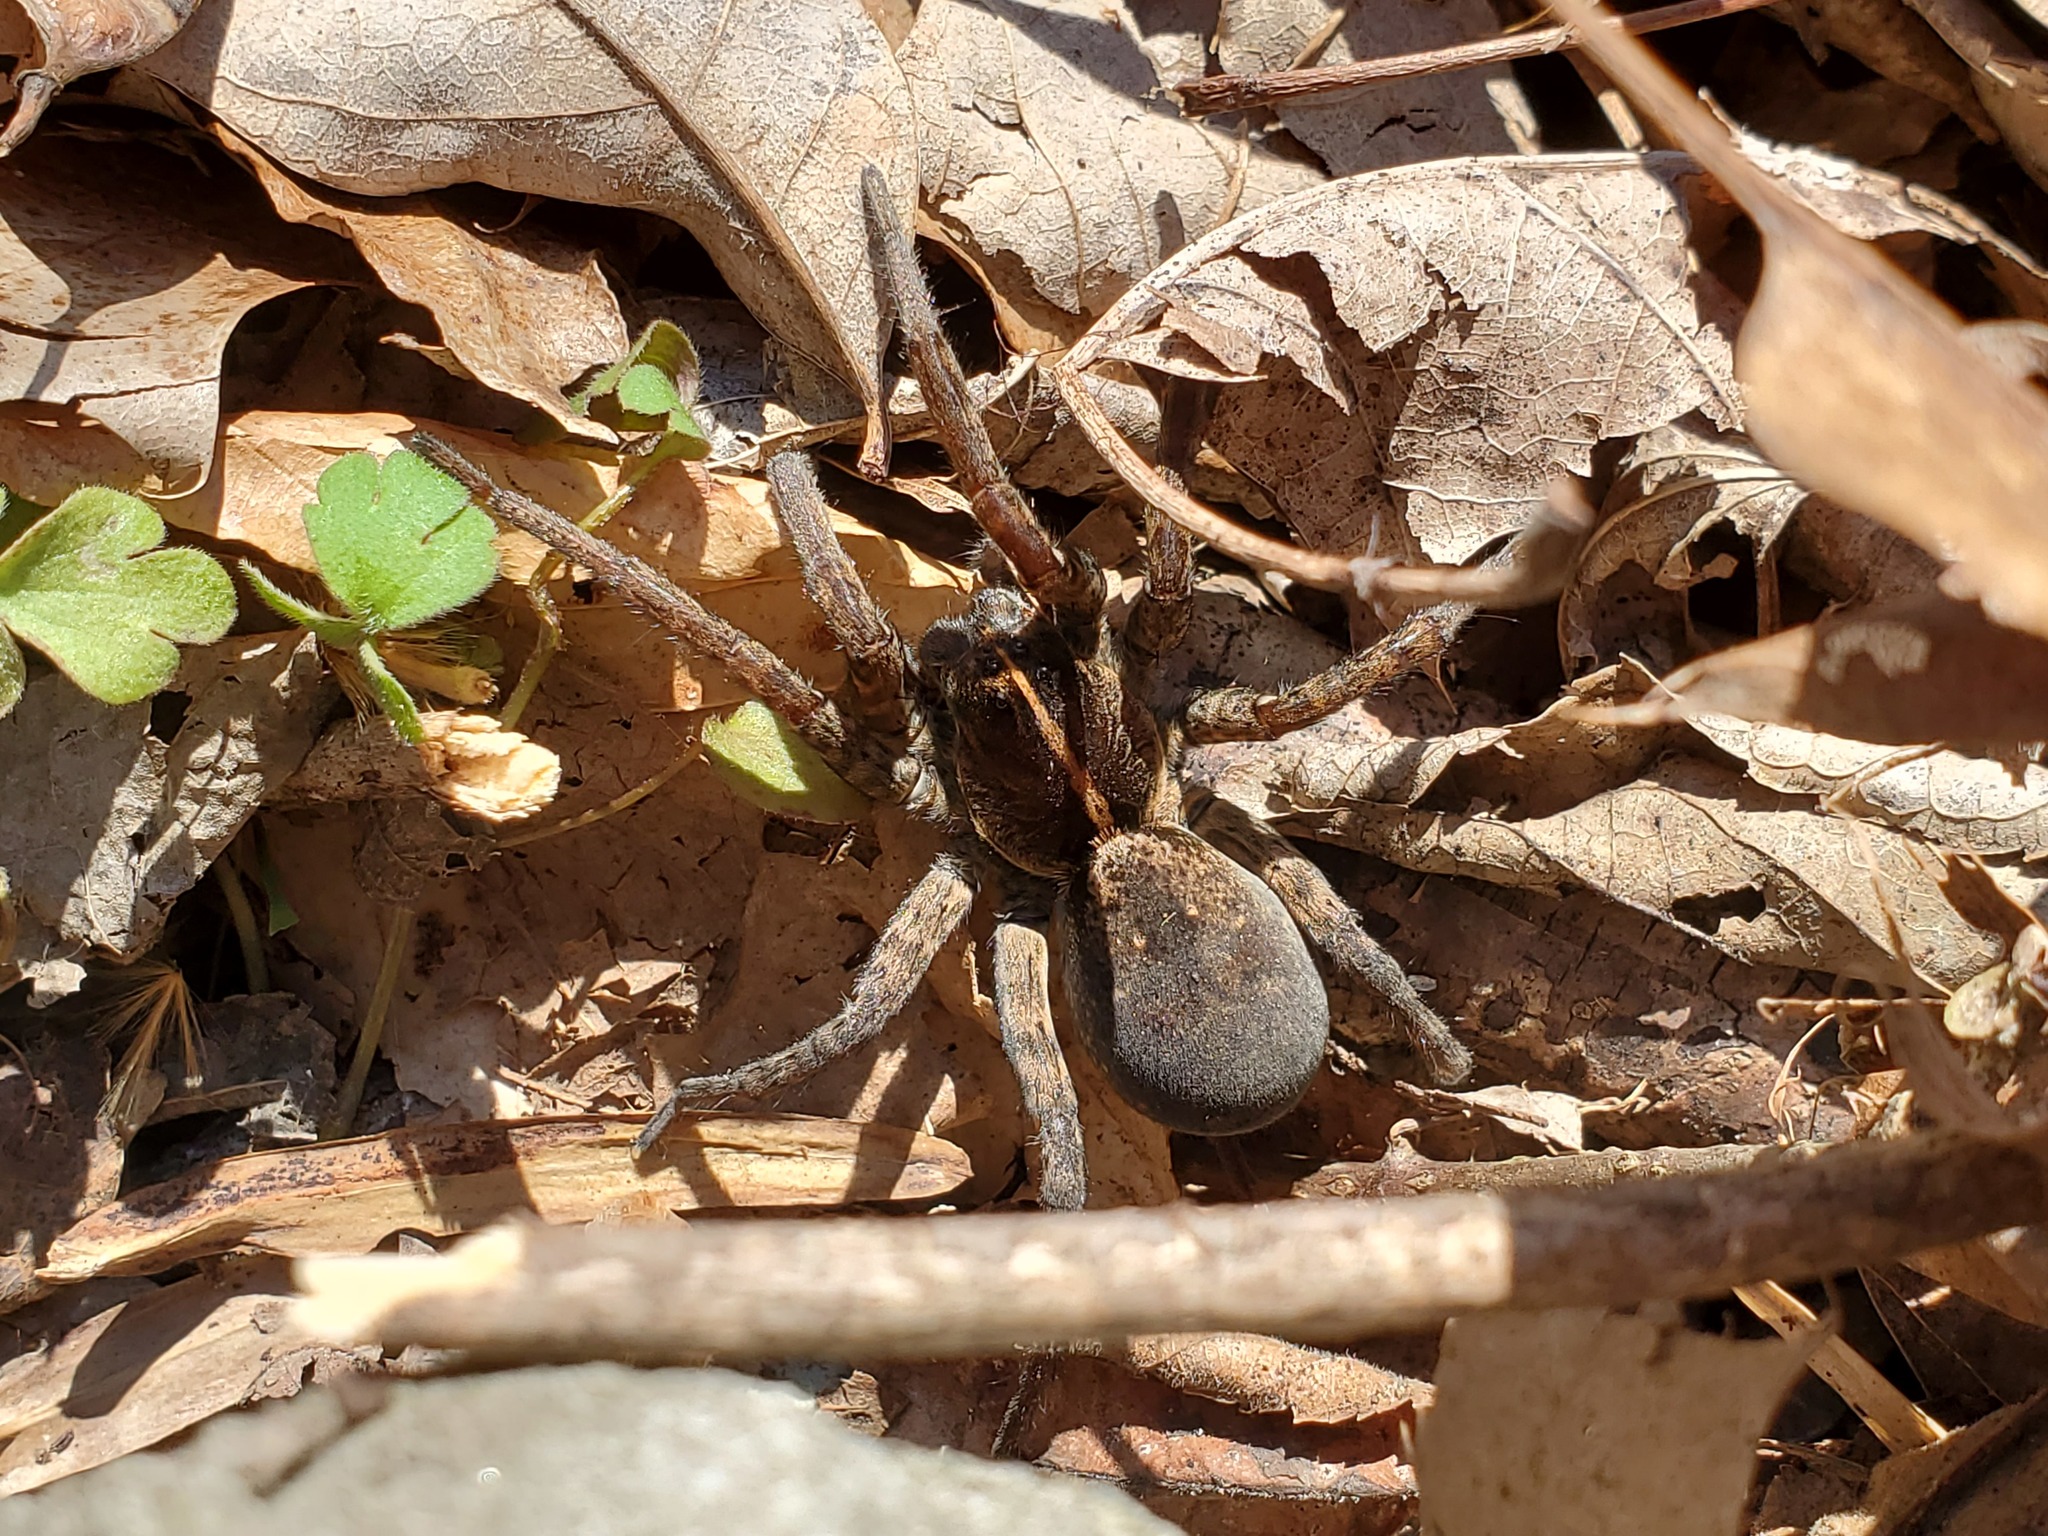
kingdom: Animalia
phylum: Arthropoda
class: Arachnida
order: Araneae
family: Lycosidae
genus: Tigrosa
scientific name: Tigrosa georgicola
